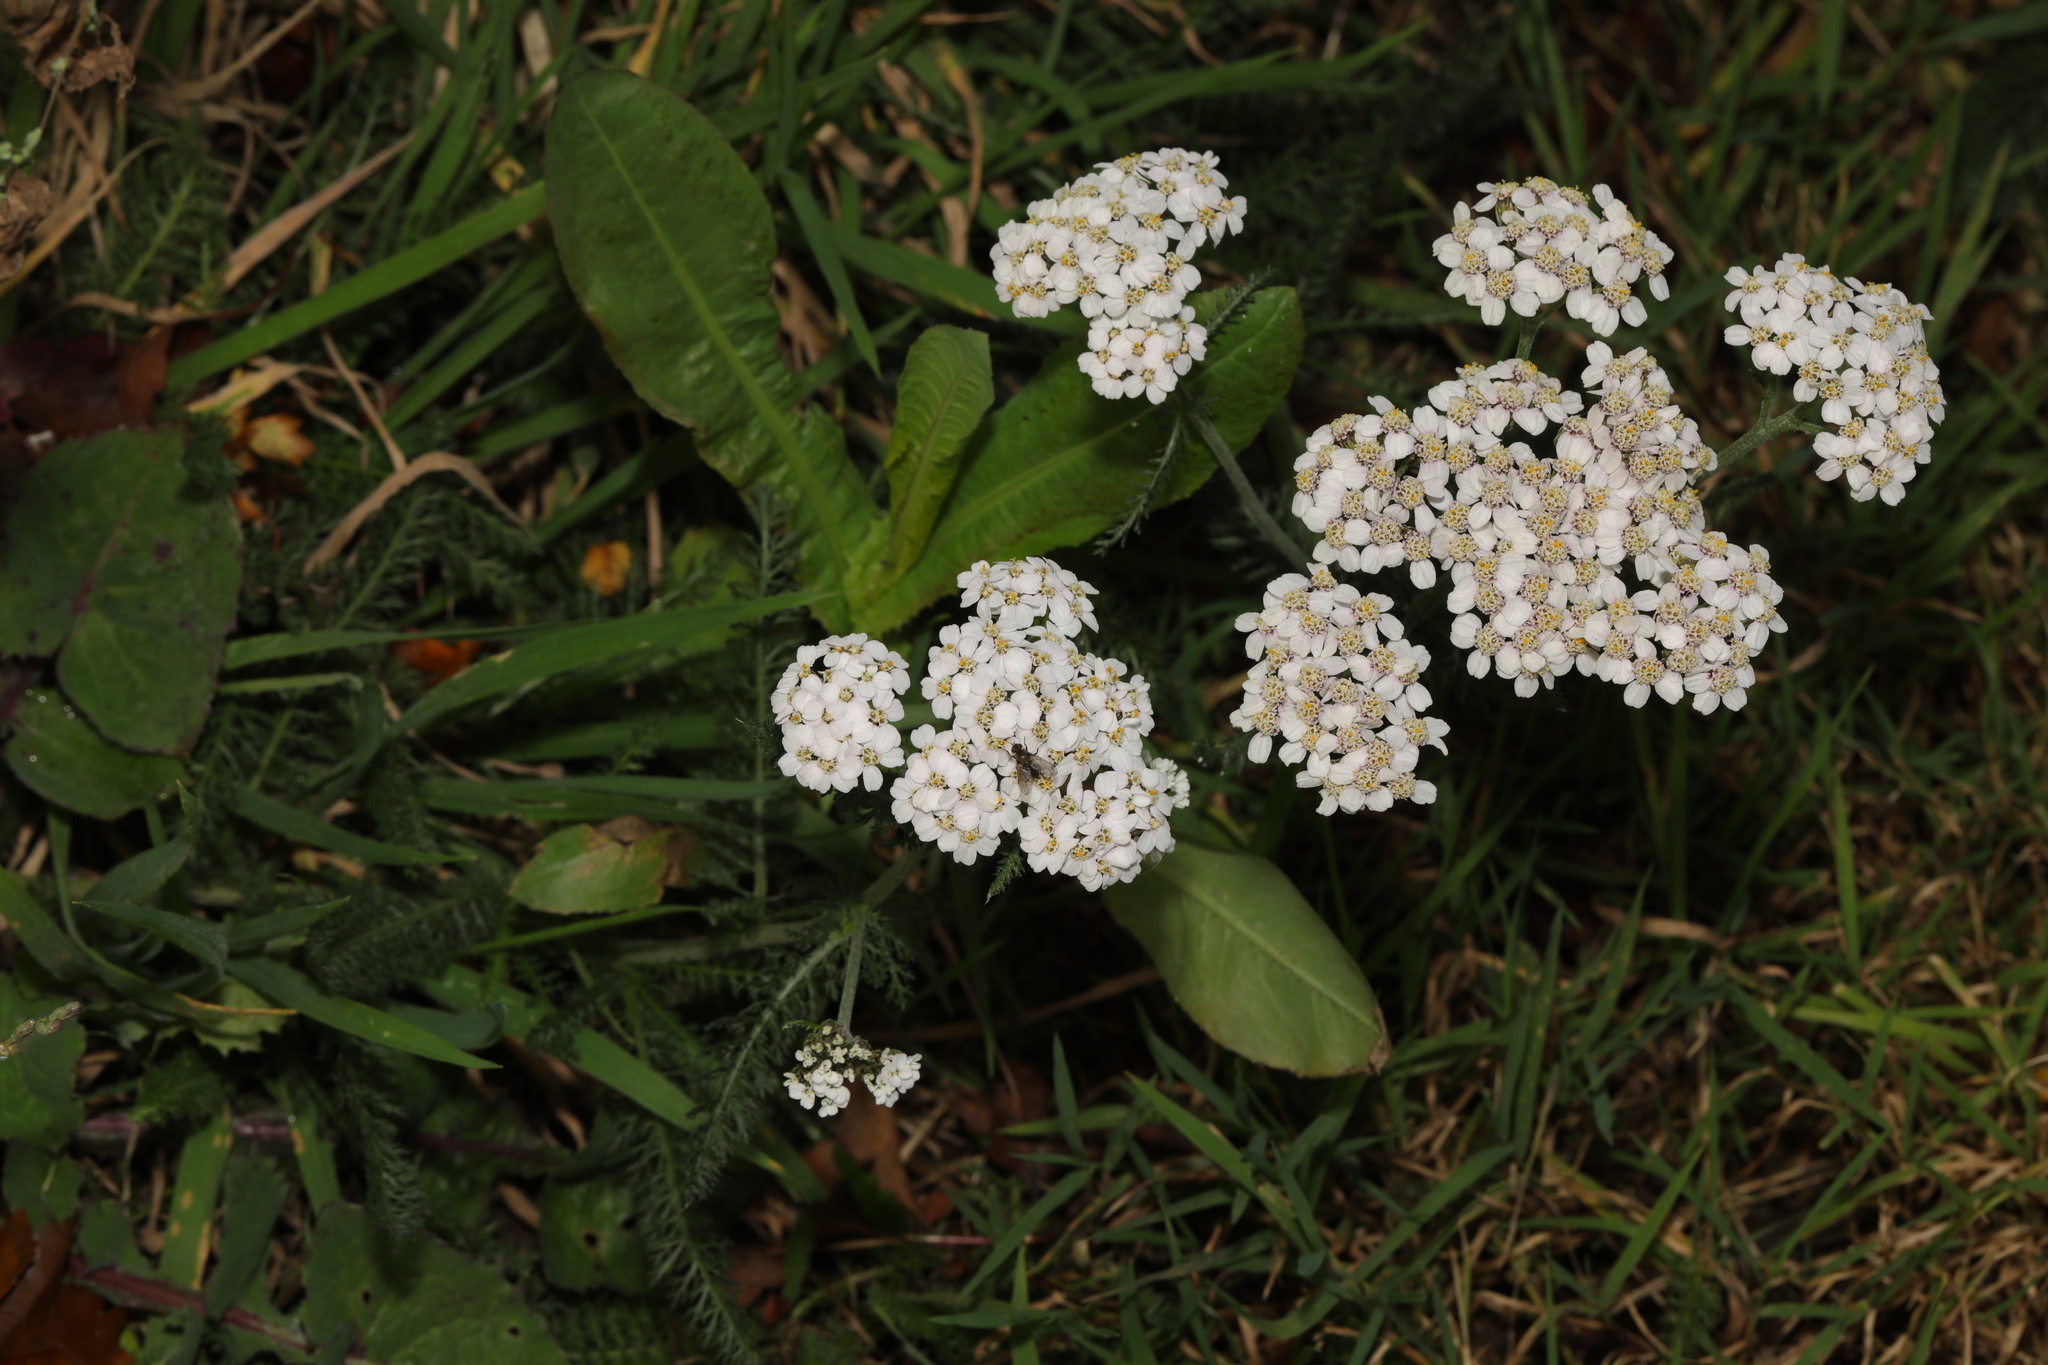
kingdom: Plantae
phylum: Tracheophyta
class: Magnoliopsida
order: Asterales
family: Asteraceae
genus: Achillea
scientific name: Achillea millefolium
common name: Yarrow
